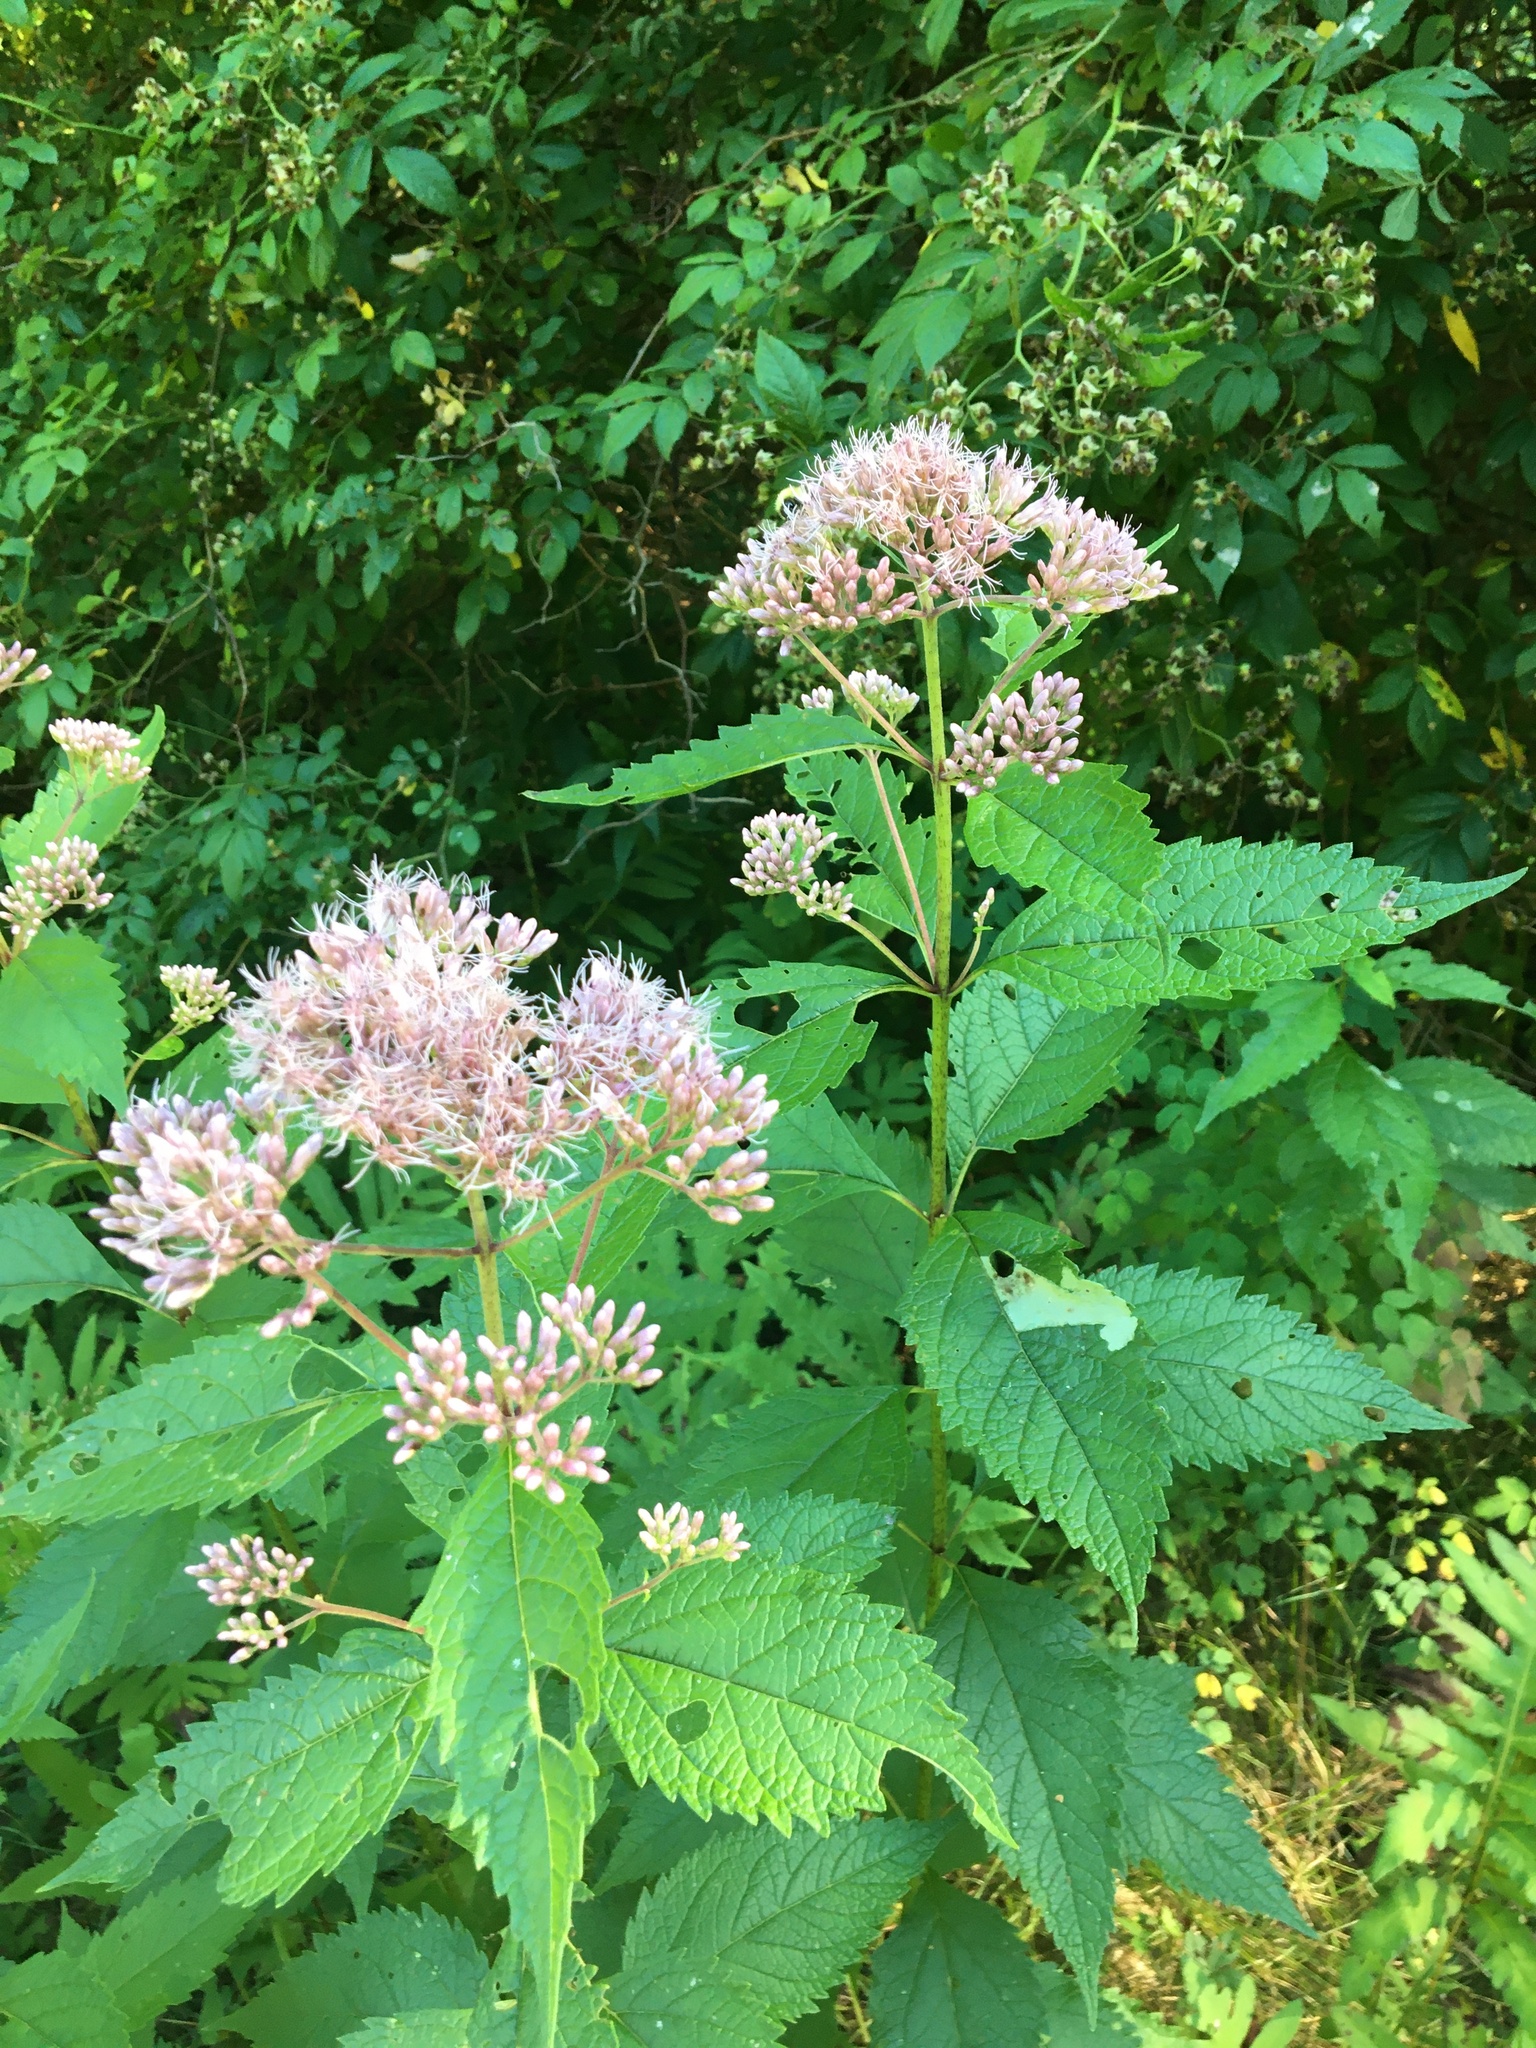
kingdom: Plantae
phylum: Tracheophyta
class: Magnoliopsida
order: Asterales
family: Asteraceae
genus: Eutrochium
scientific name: Eutrochium dubium
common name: Coastal plain joe pye weed
